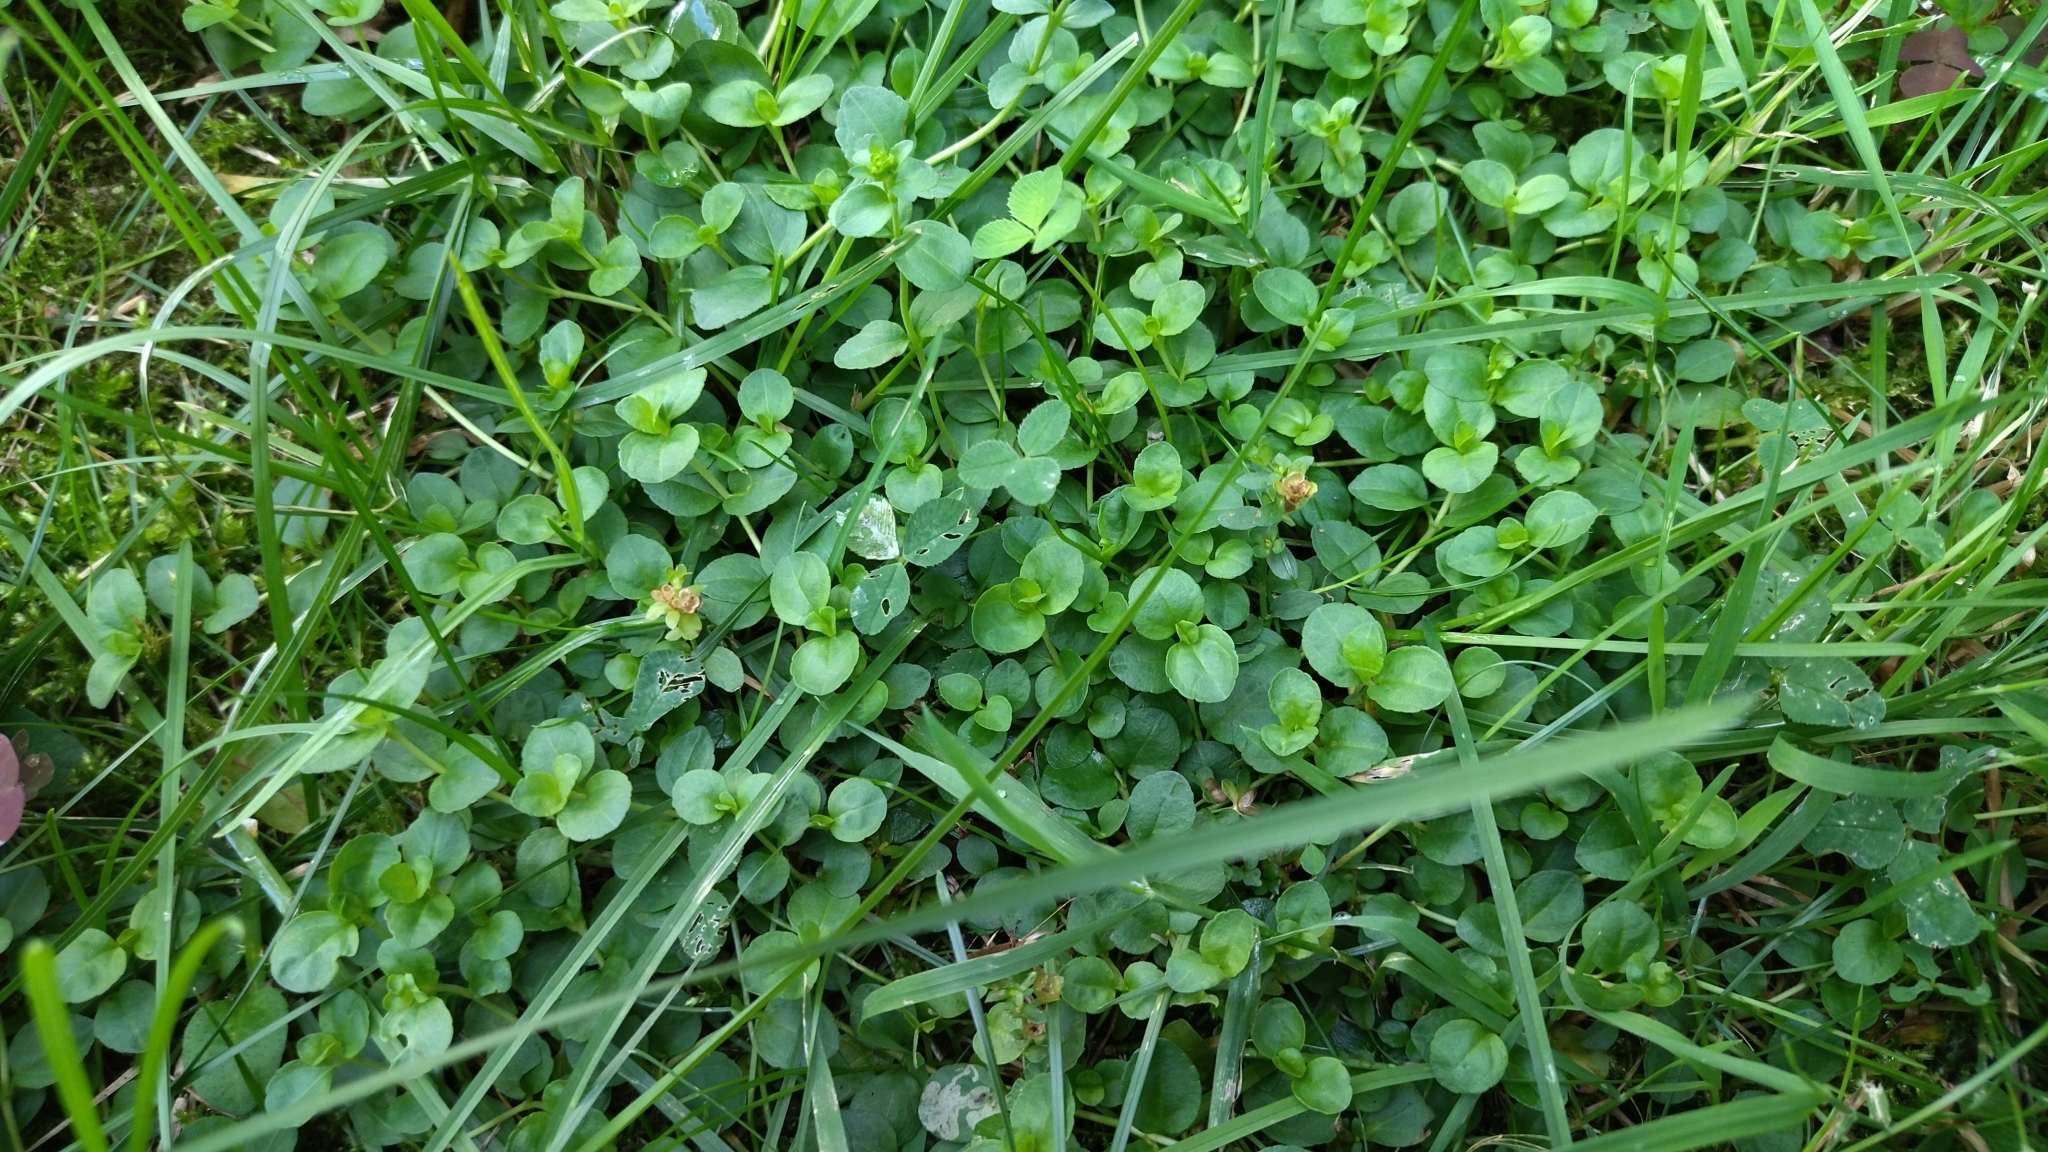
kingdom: Plantae
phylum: Tracheophyta
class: Magnoliopsida
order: Lamiales
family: Plantaginaceae
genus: Veronica
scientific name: Veronica serpyllifolia
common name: Thyme-leaved speedwell
